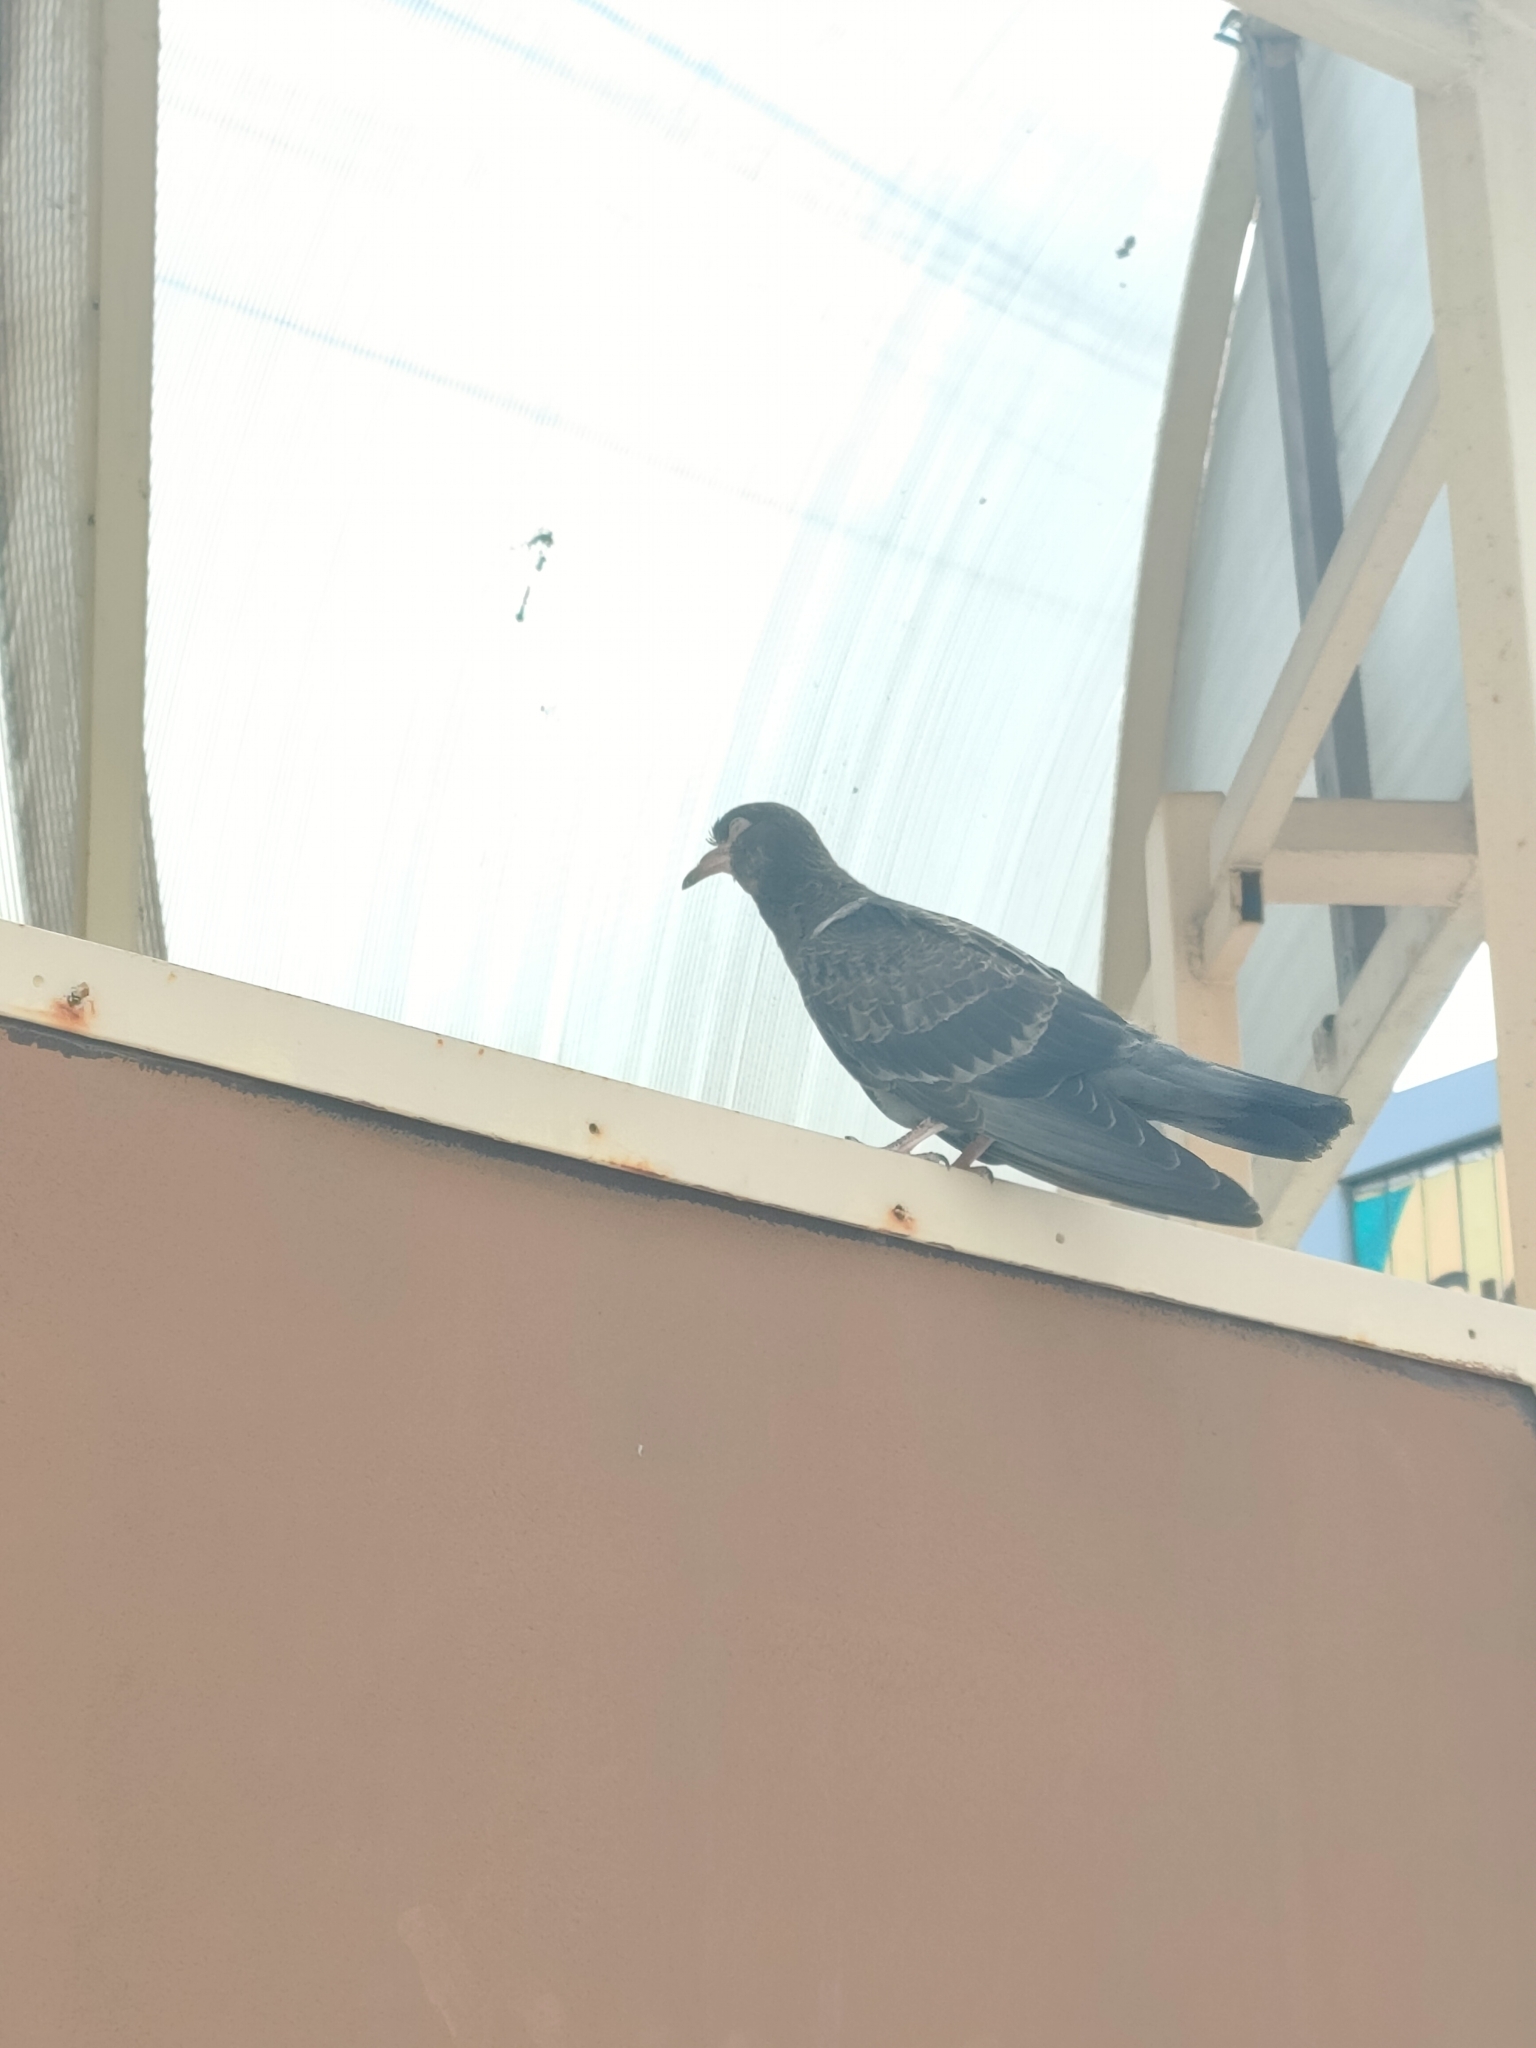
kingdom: Animalia
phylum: Chordata
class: Aves
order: Columbiformes
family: Columbidae
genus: Columba
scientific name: Columba livia
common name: Rock pigeon
